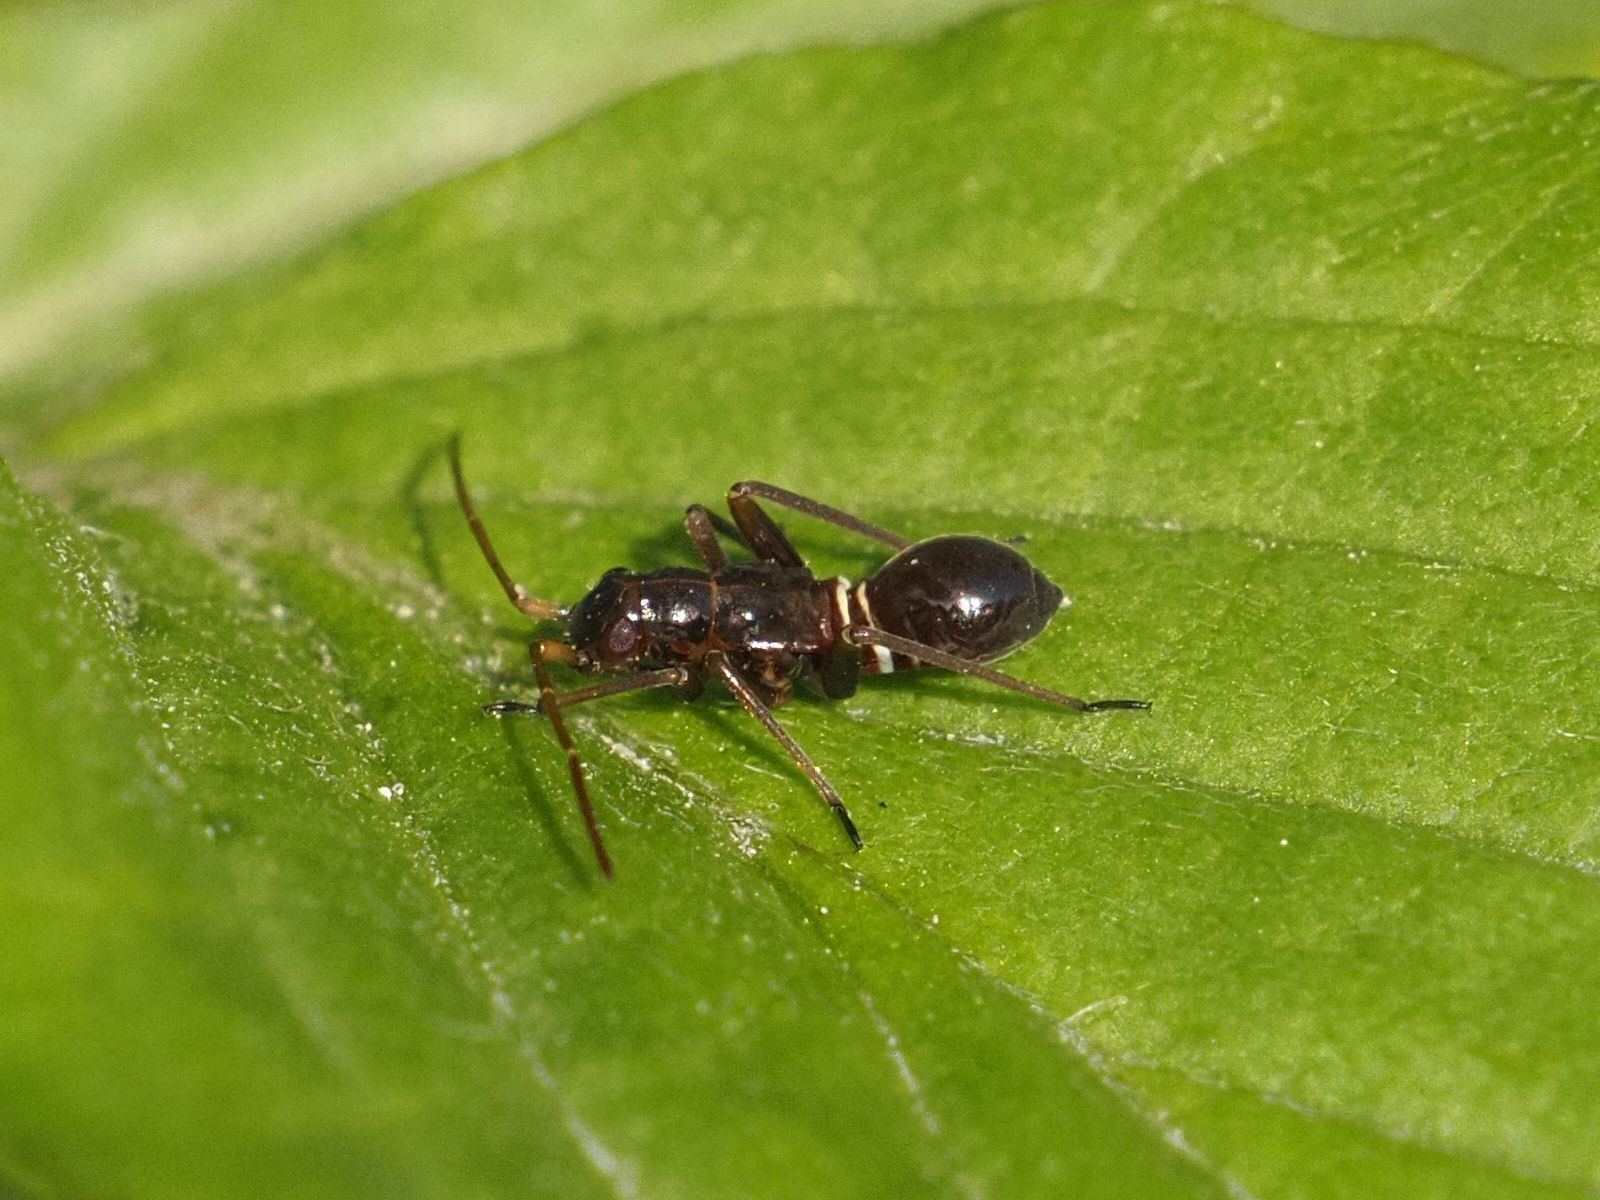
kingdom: Animalia
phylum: Arthropoda
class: Insecta
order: Hemiptera
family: Miridae
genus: Miris
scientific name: Miris striatus
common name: Fine streaked bugkin
